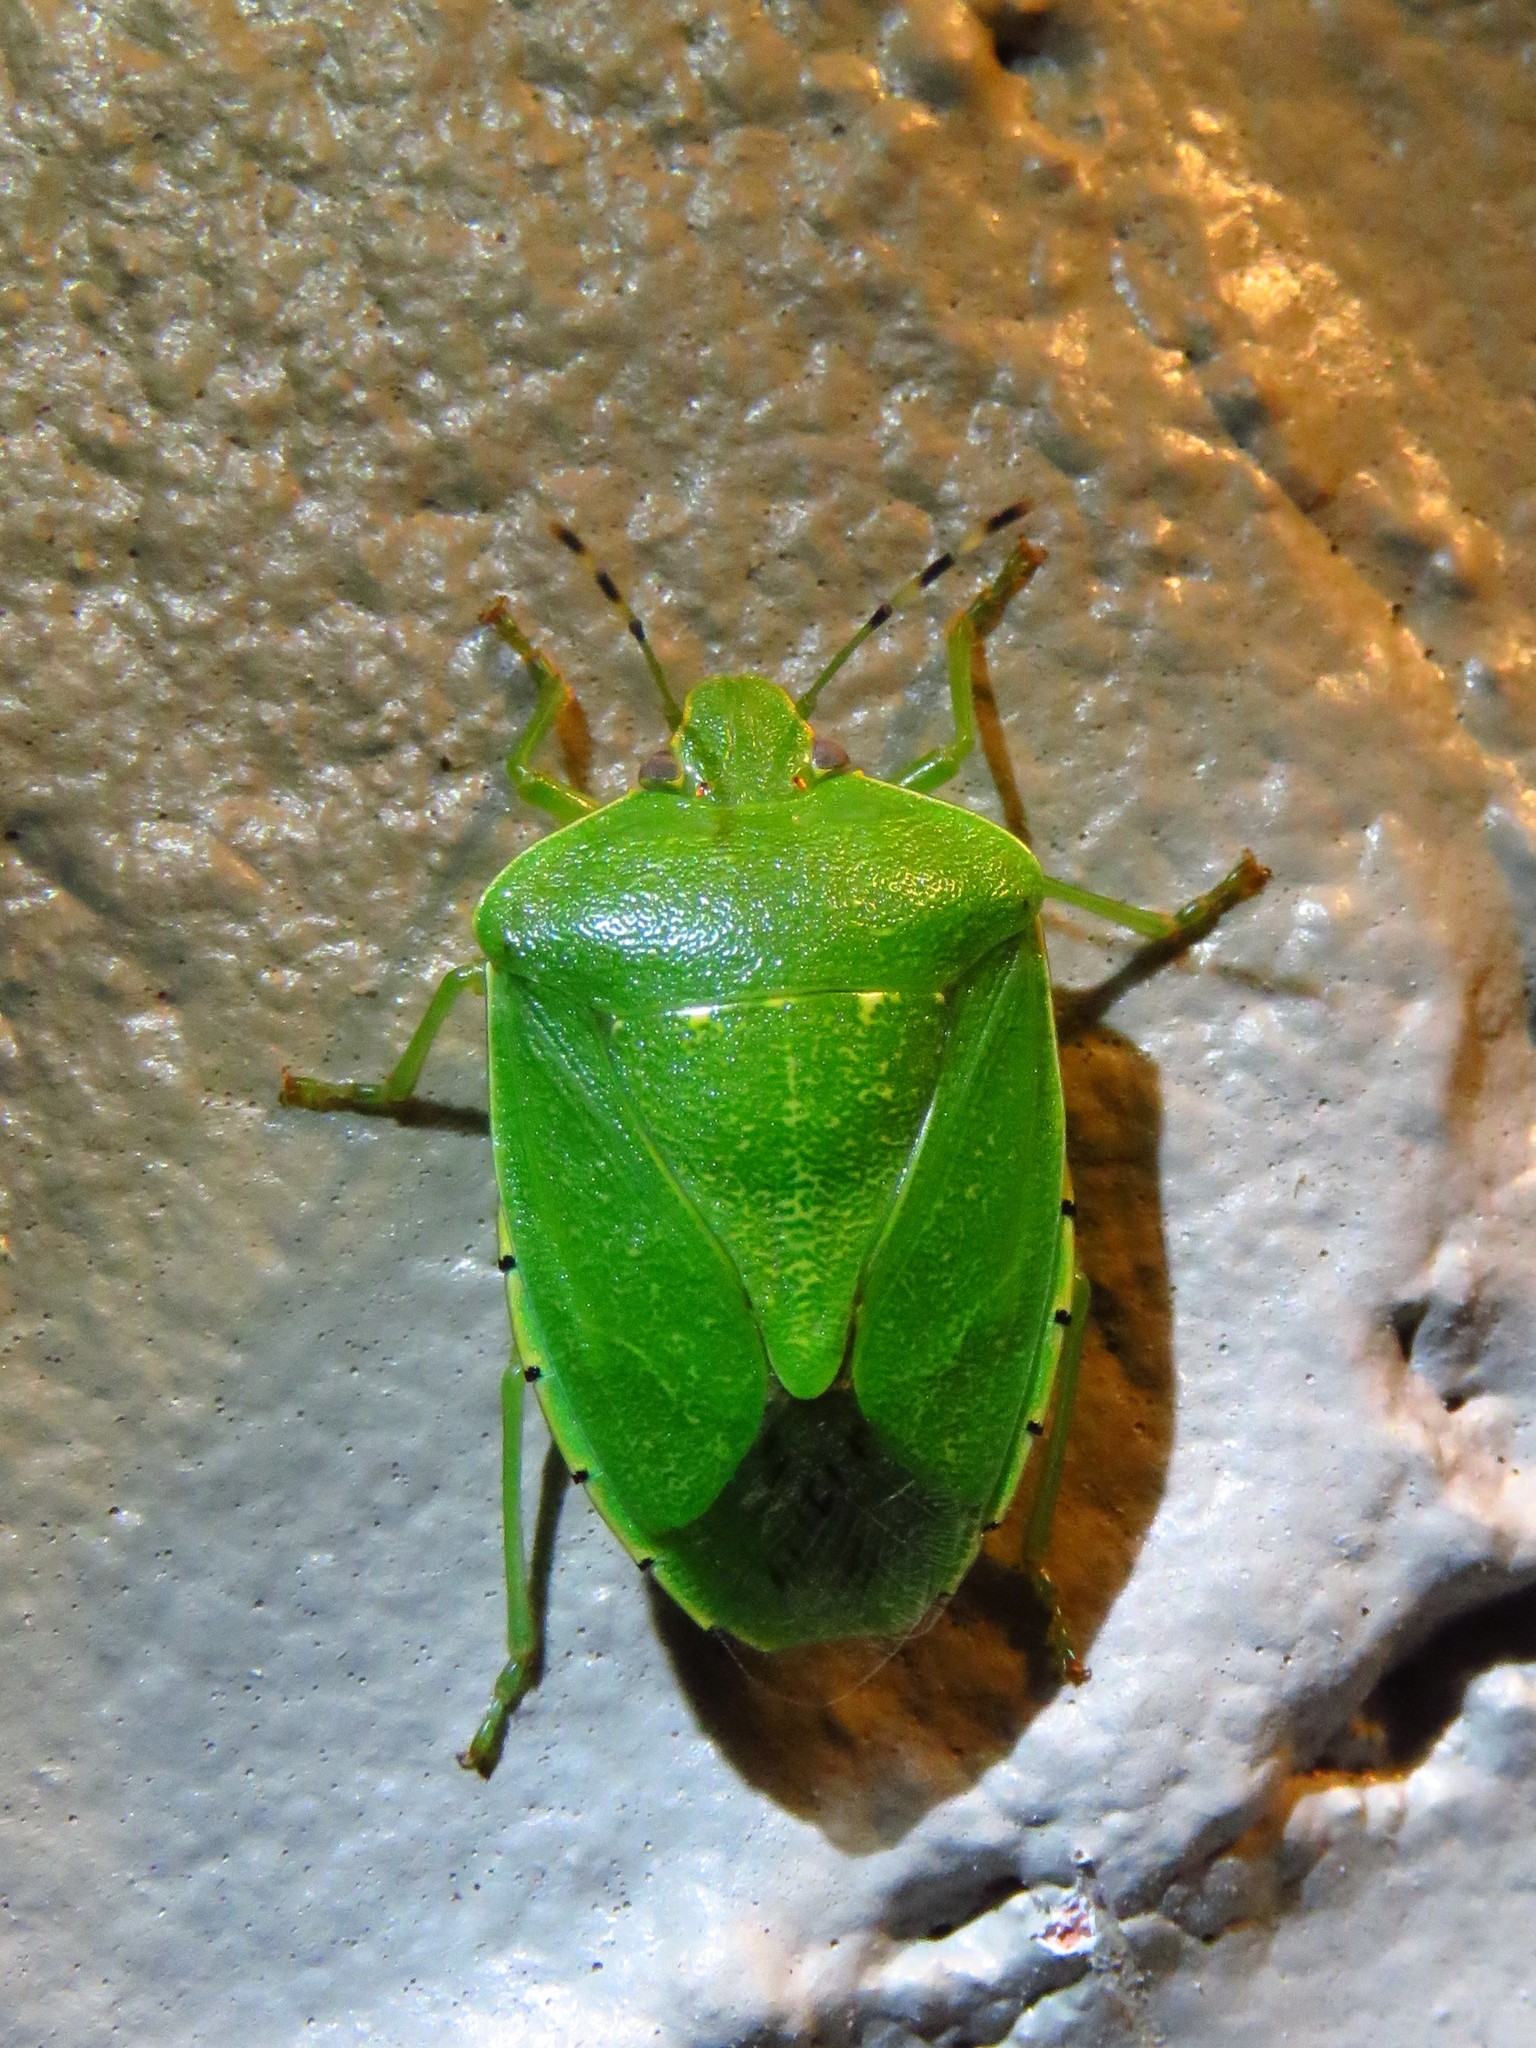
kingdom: Animalia
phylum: Arthropoda
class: Insecta
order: Hemiptera
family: Pentatomidae
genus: Chinavia
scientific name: Chinavia hilaris
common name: Green stink bug
